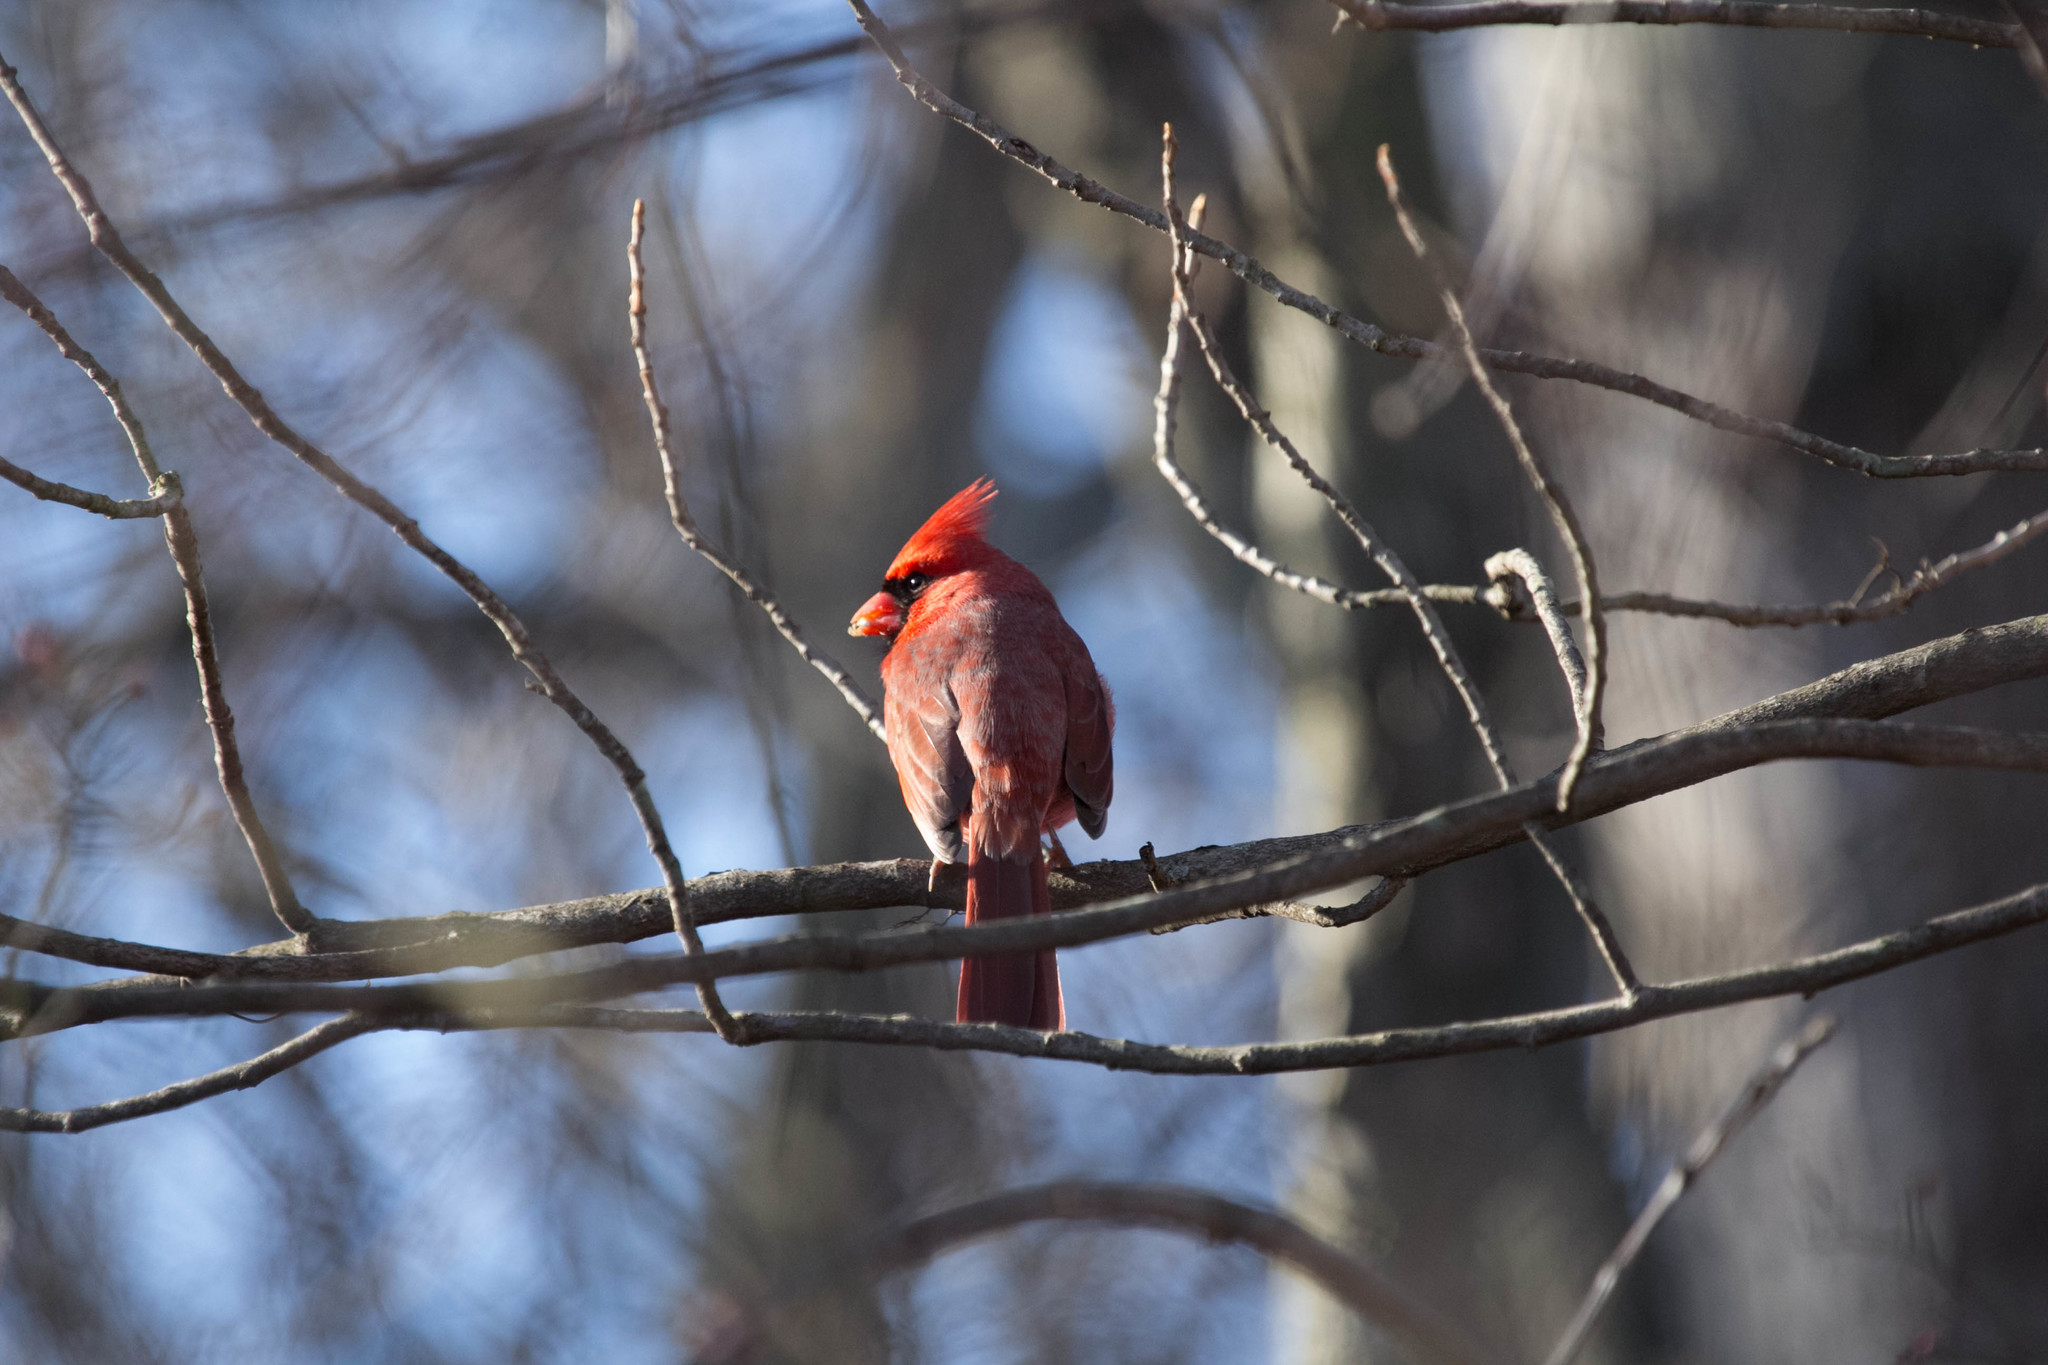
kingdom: Animalia
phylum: Chordata
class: Aves
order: Passeriformes
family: Cardinalidae
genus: Cardinalis
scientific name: Cardinalis cardinalis
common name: Northern cardinal
